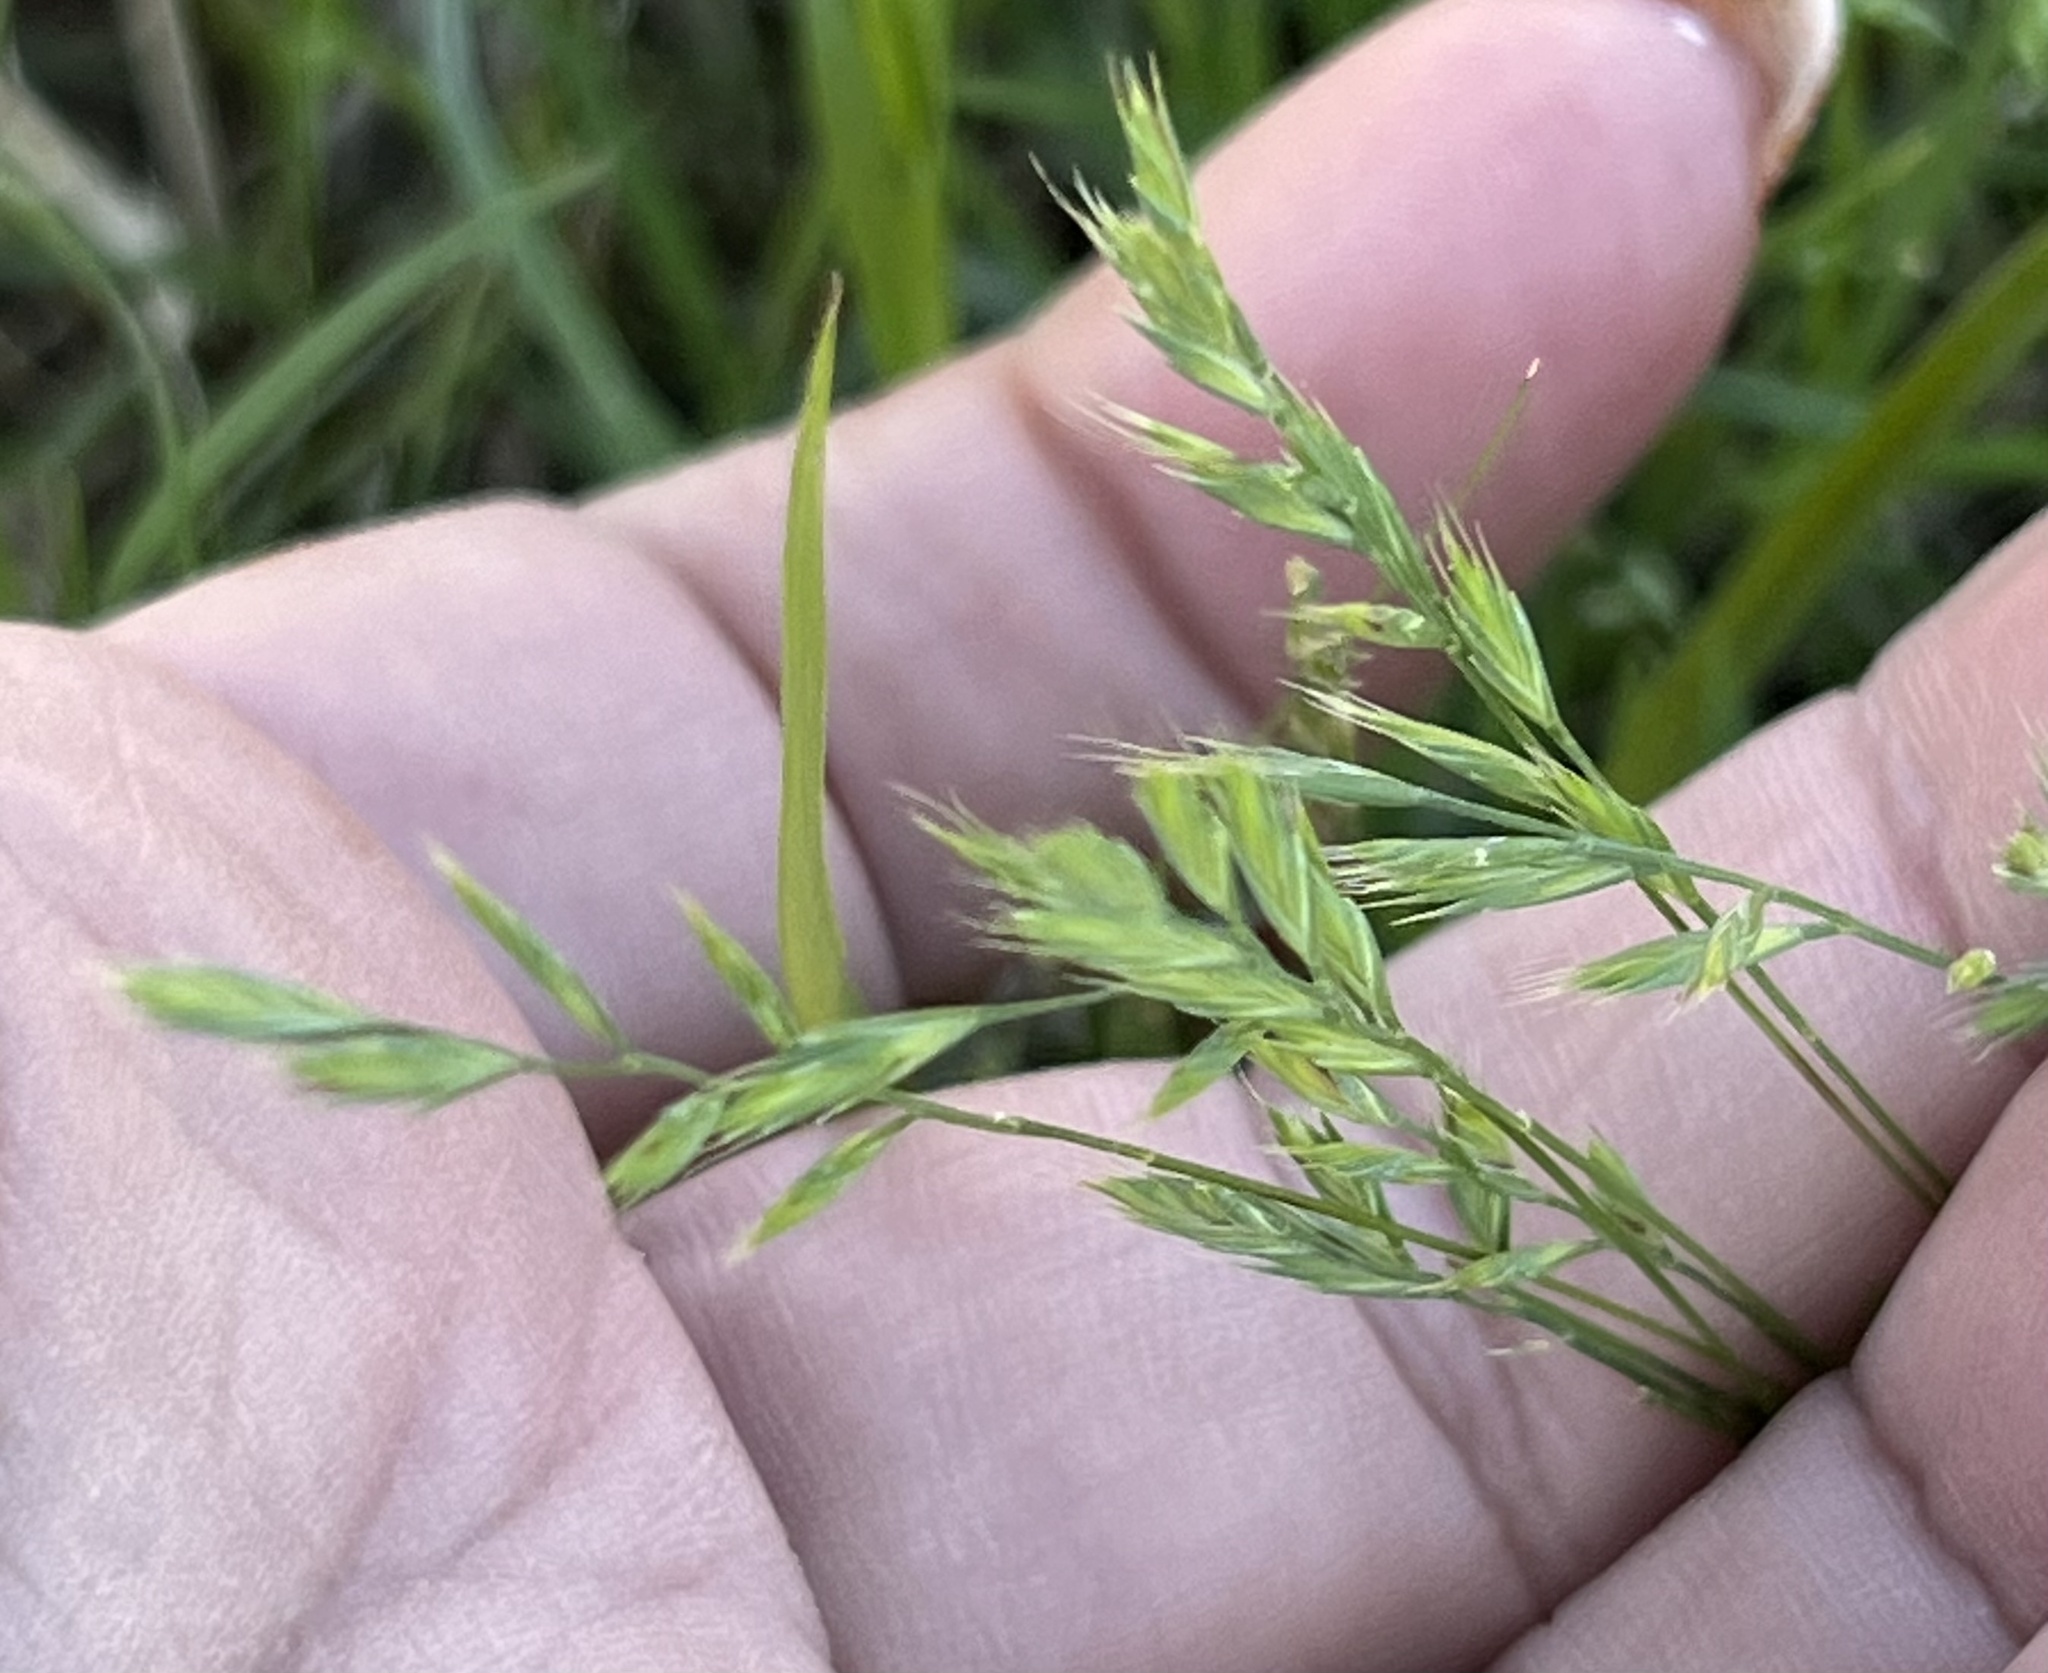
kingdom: Plantae
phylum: Tracheophyta
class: Liliopsida
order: Poales
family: Poaceae
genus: Festuca
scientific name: Festuca octoflora
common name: Sixweeks grass
